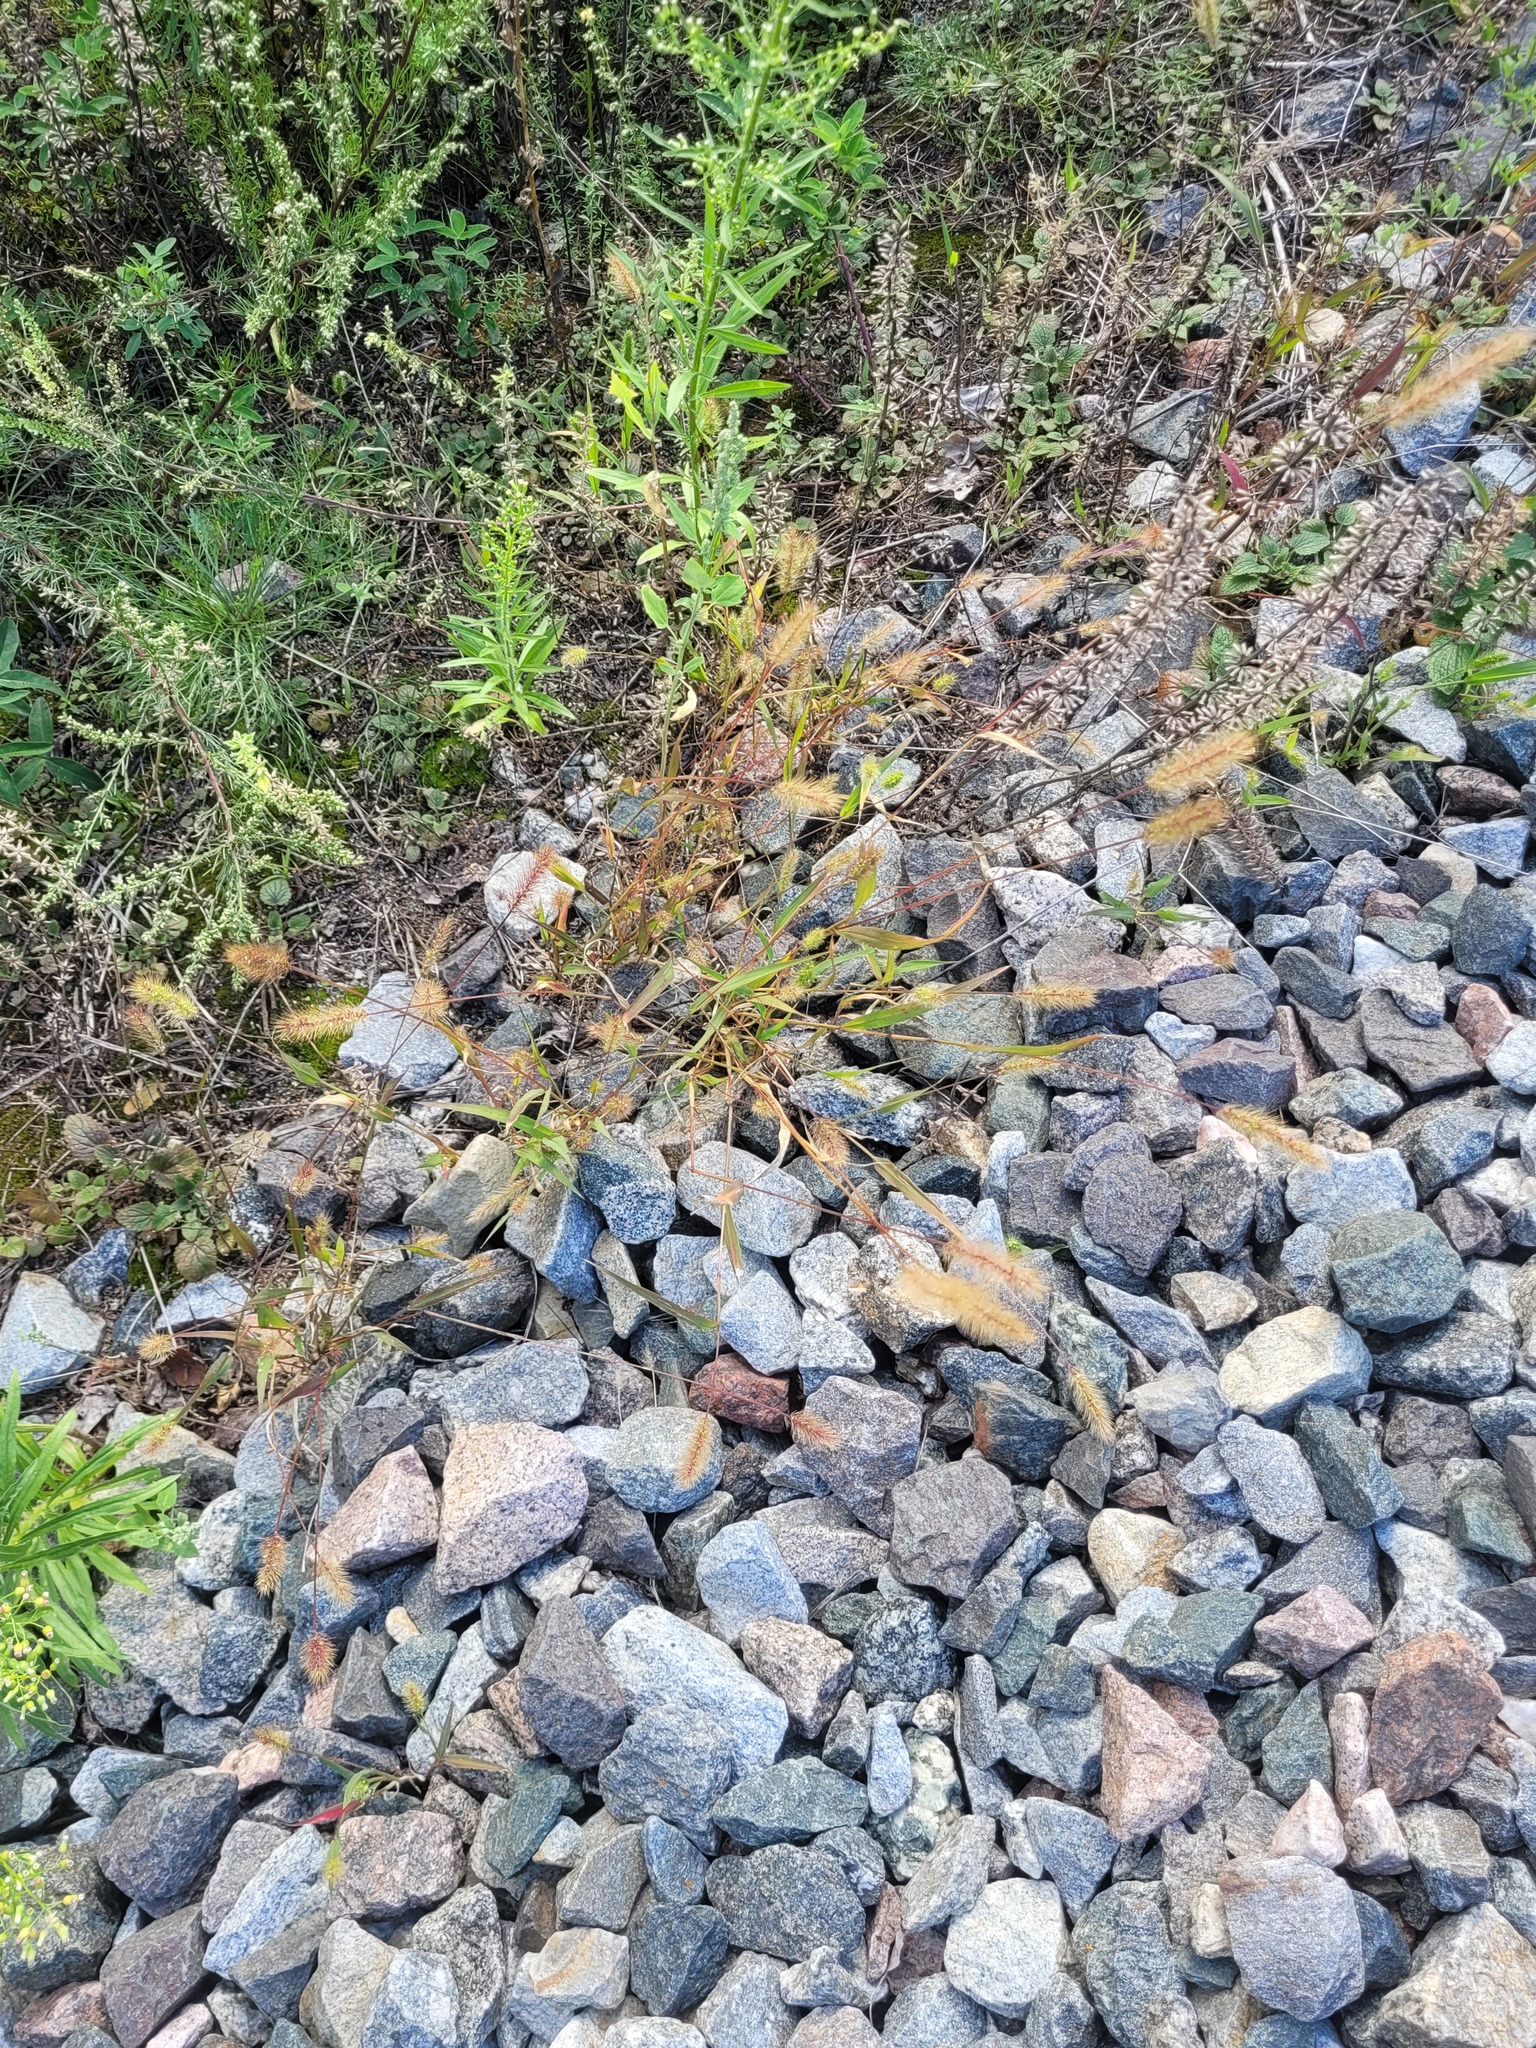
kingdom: Plantae
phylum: Tracheophyta
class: Liliopsida
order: Poales
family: Poaceae
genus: Setaria
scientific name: Setaria viridis
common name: Green bristlegrass
